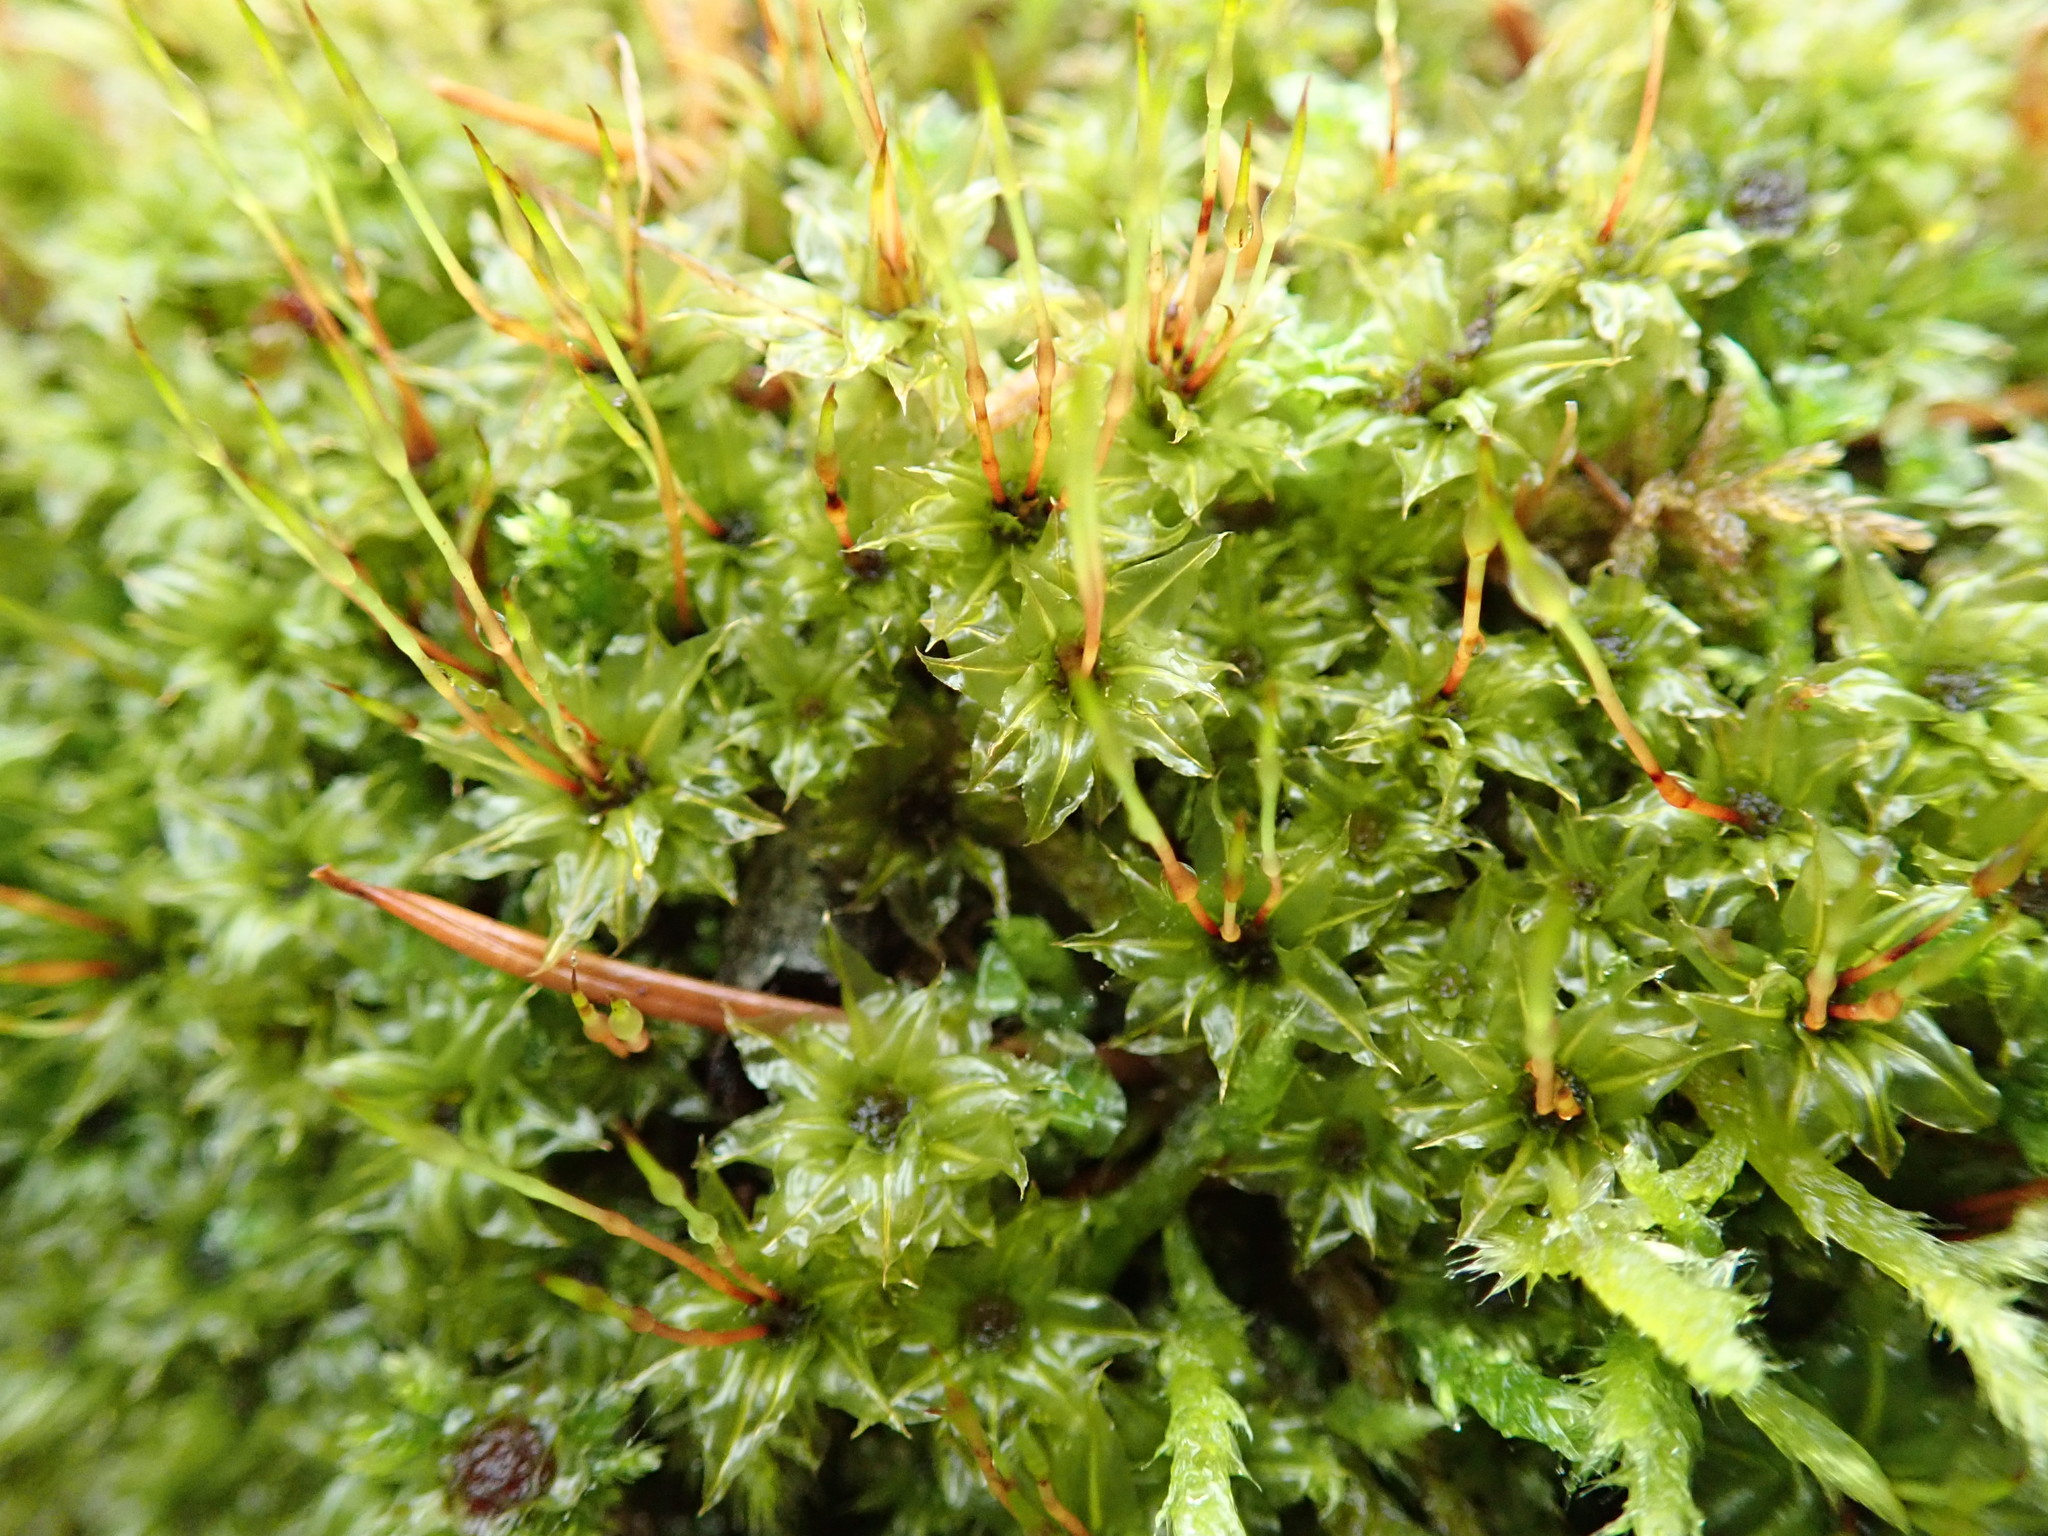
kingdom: Plantae
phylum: Bryophyta
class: Bryopsida
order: Bryales
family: Mniaceae
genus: Plagiomnium
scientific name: Plagiomnium venustum
